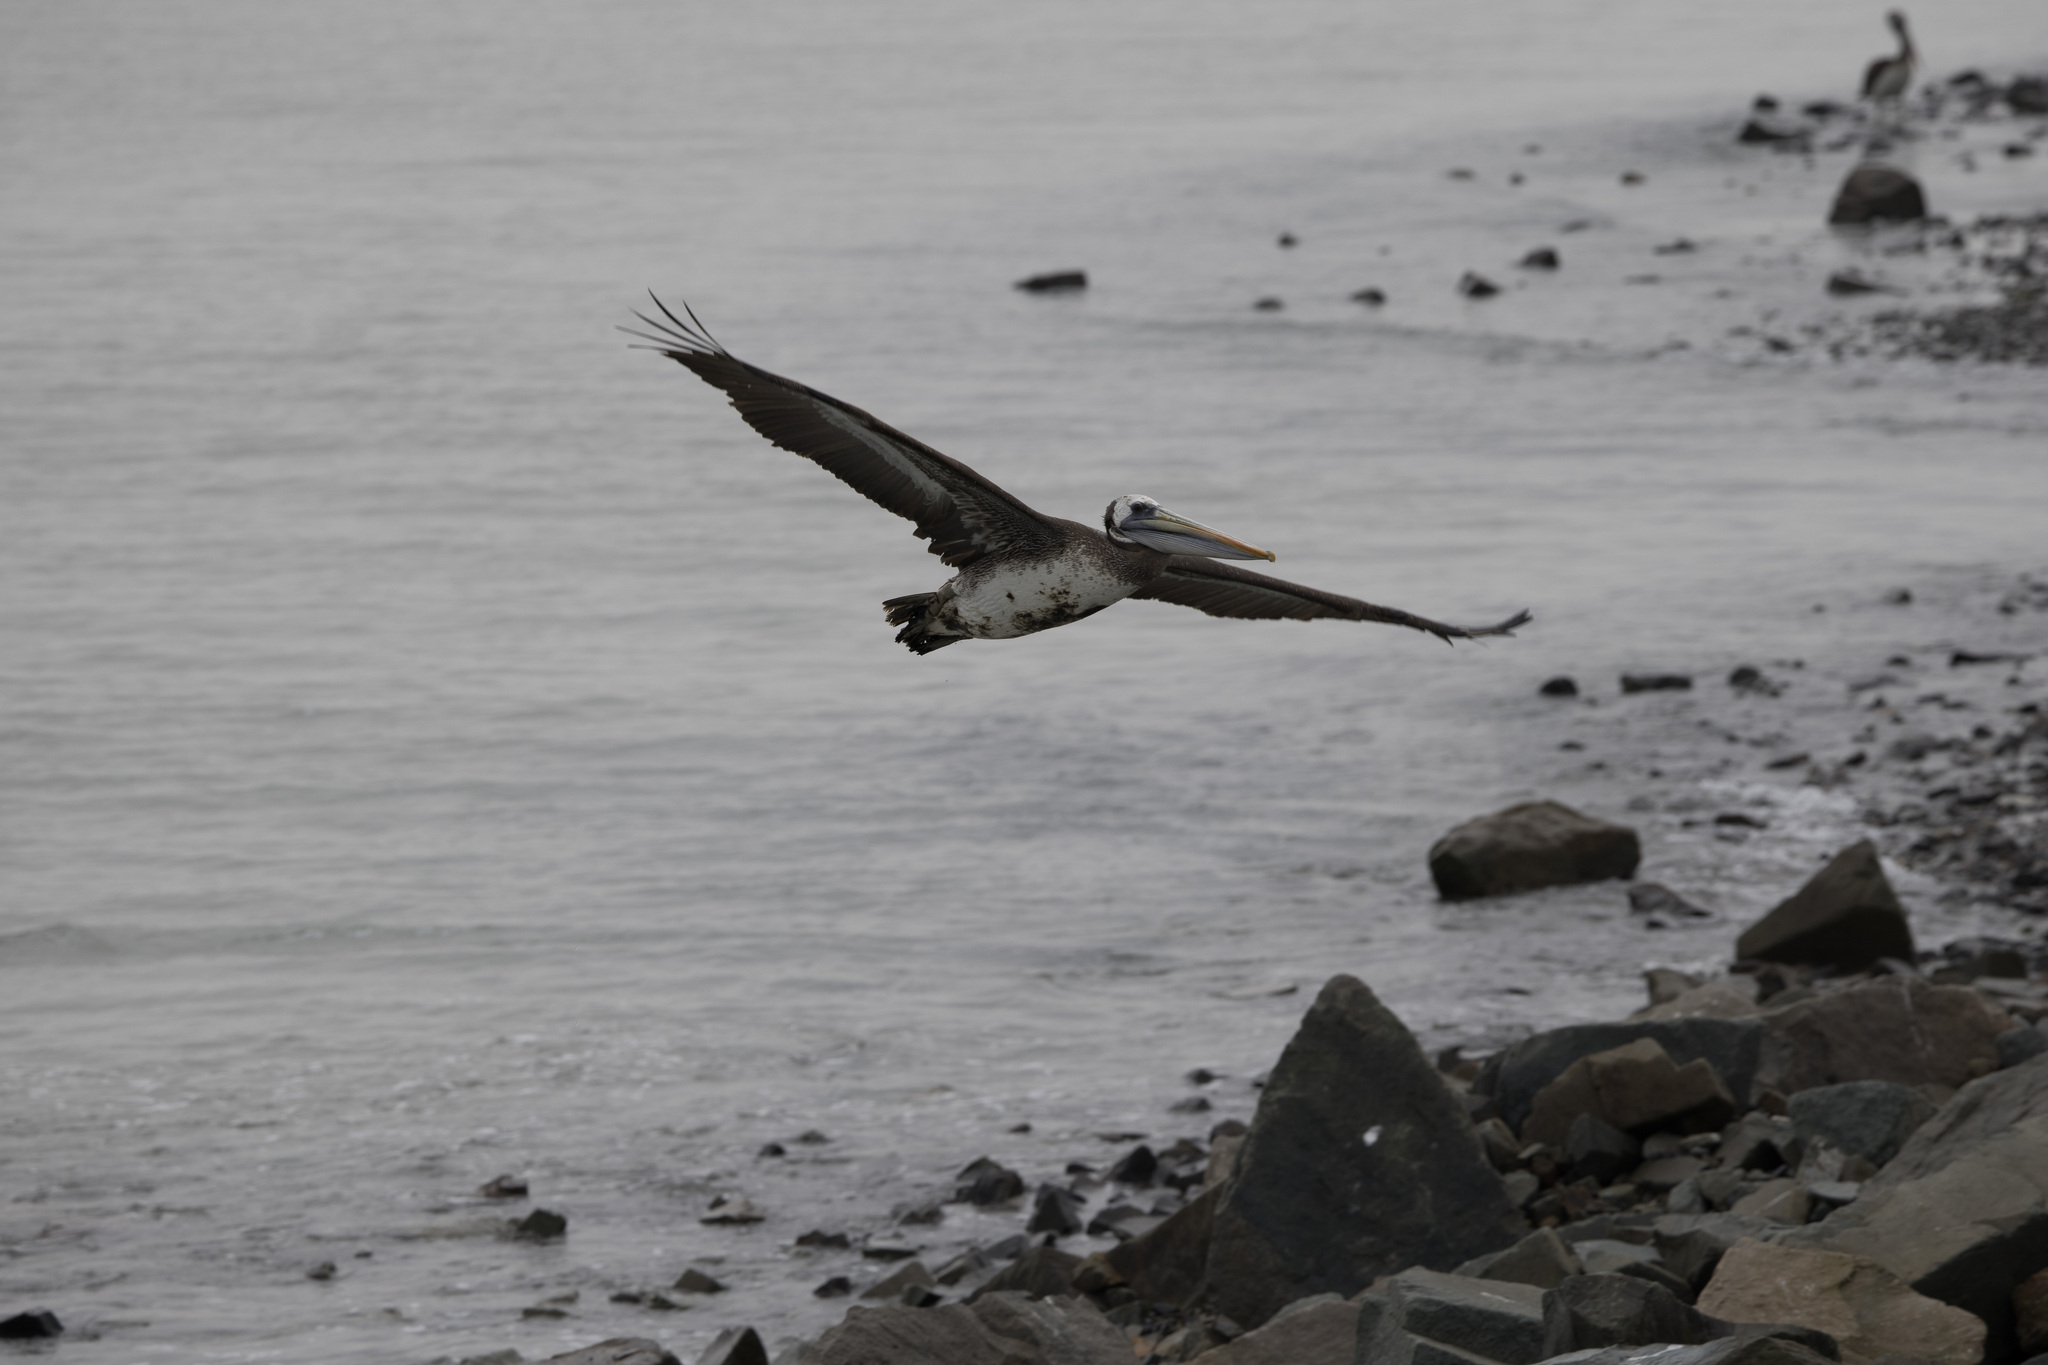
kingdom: Animalia
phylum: Chordata
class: Aves
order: Pelecaniformes
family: Pelecanidae
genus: Pelecanus
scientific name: Pelecanus thagus
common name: Peruvian pelican
